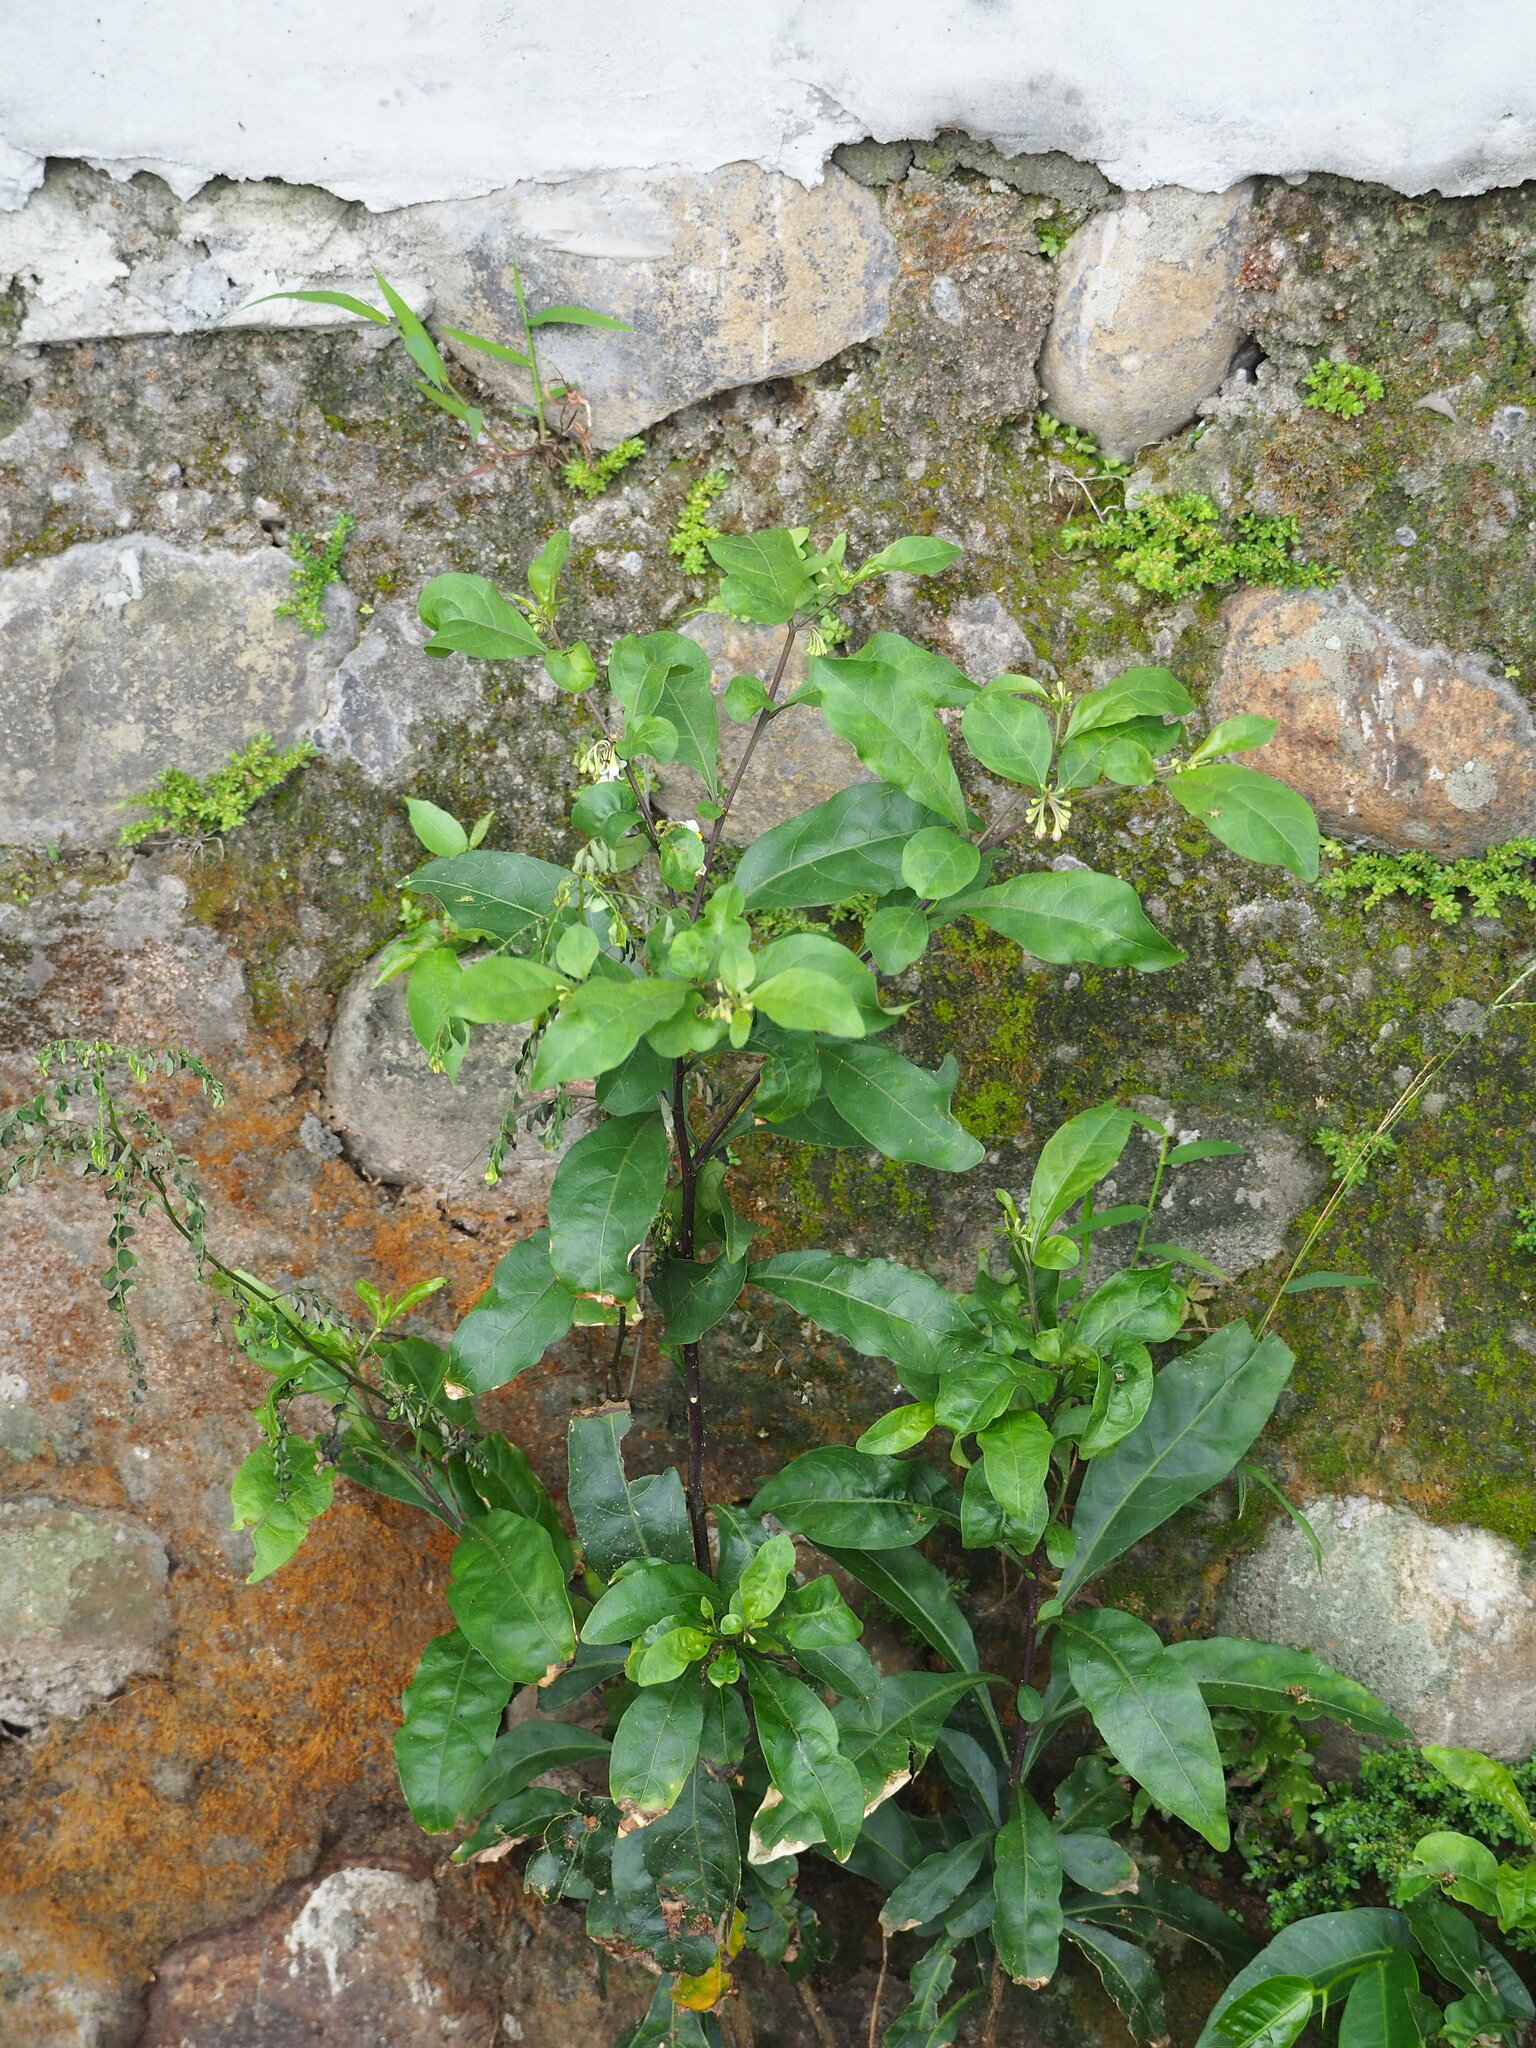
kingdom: Plantae
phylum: Tracheophyta
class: Magnoliopsida
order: Solanales
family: Solanaceae
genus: Solanum
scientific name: Solanum diphyllum
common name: Twoleaf nightshade
